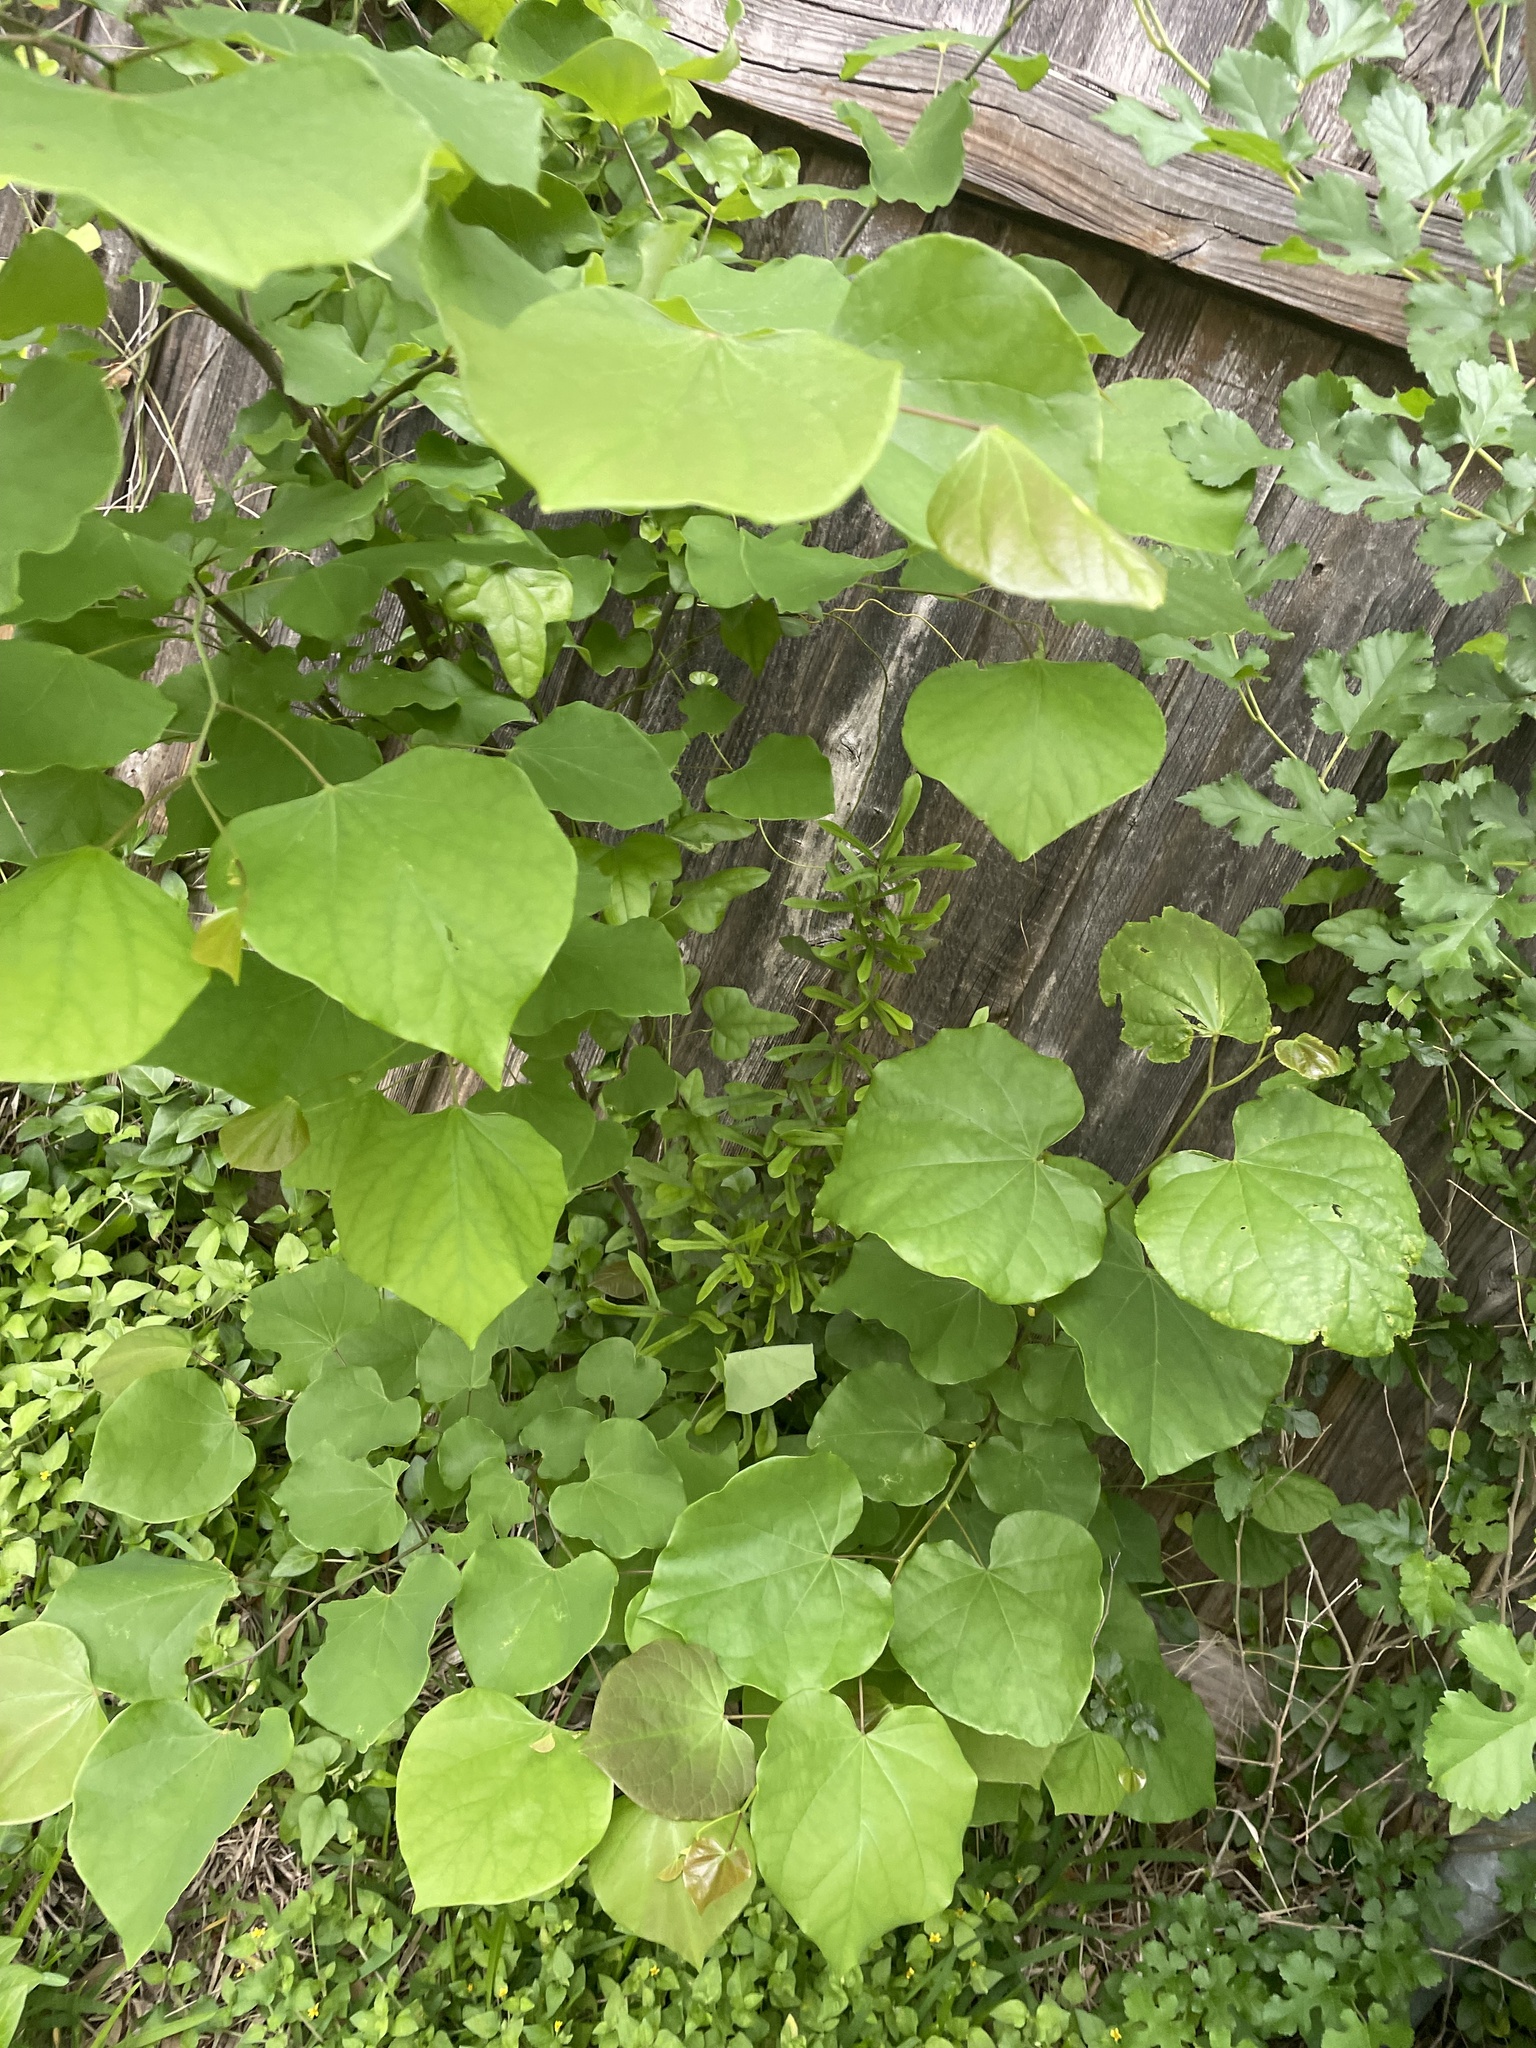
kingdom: Plantae
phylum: Tracheophyta
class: Magnoliopsida
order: Fabales
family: Fabaceae
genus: Cercis
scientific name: Cercis canadensis
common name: Eastern redbud
